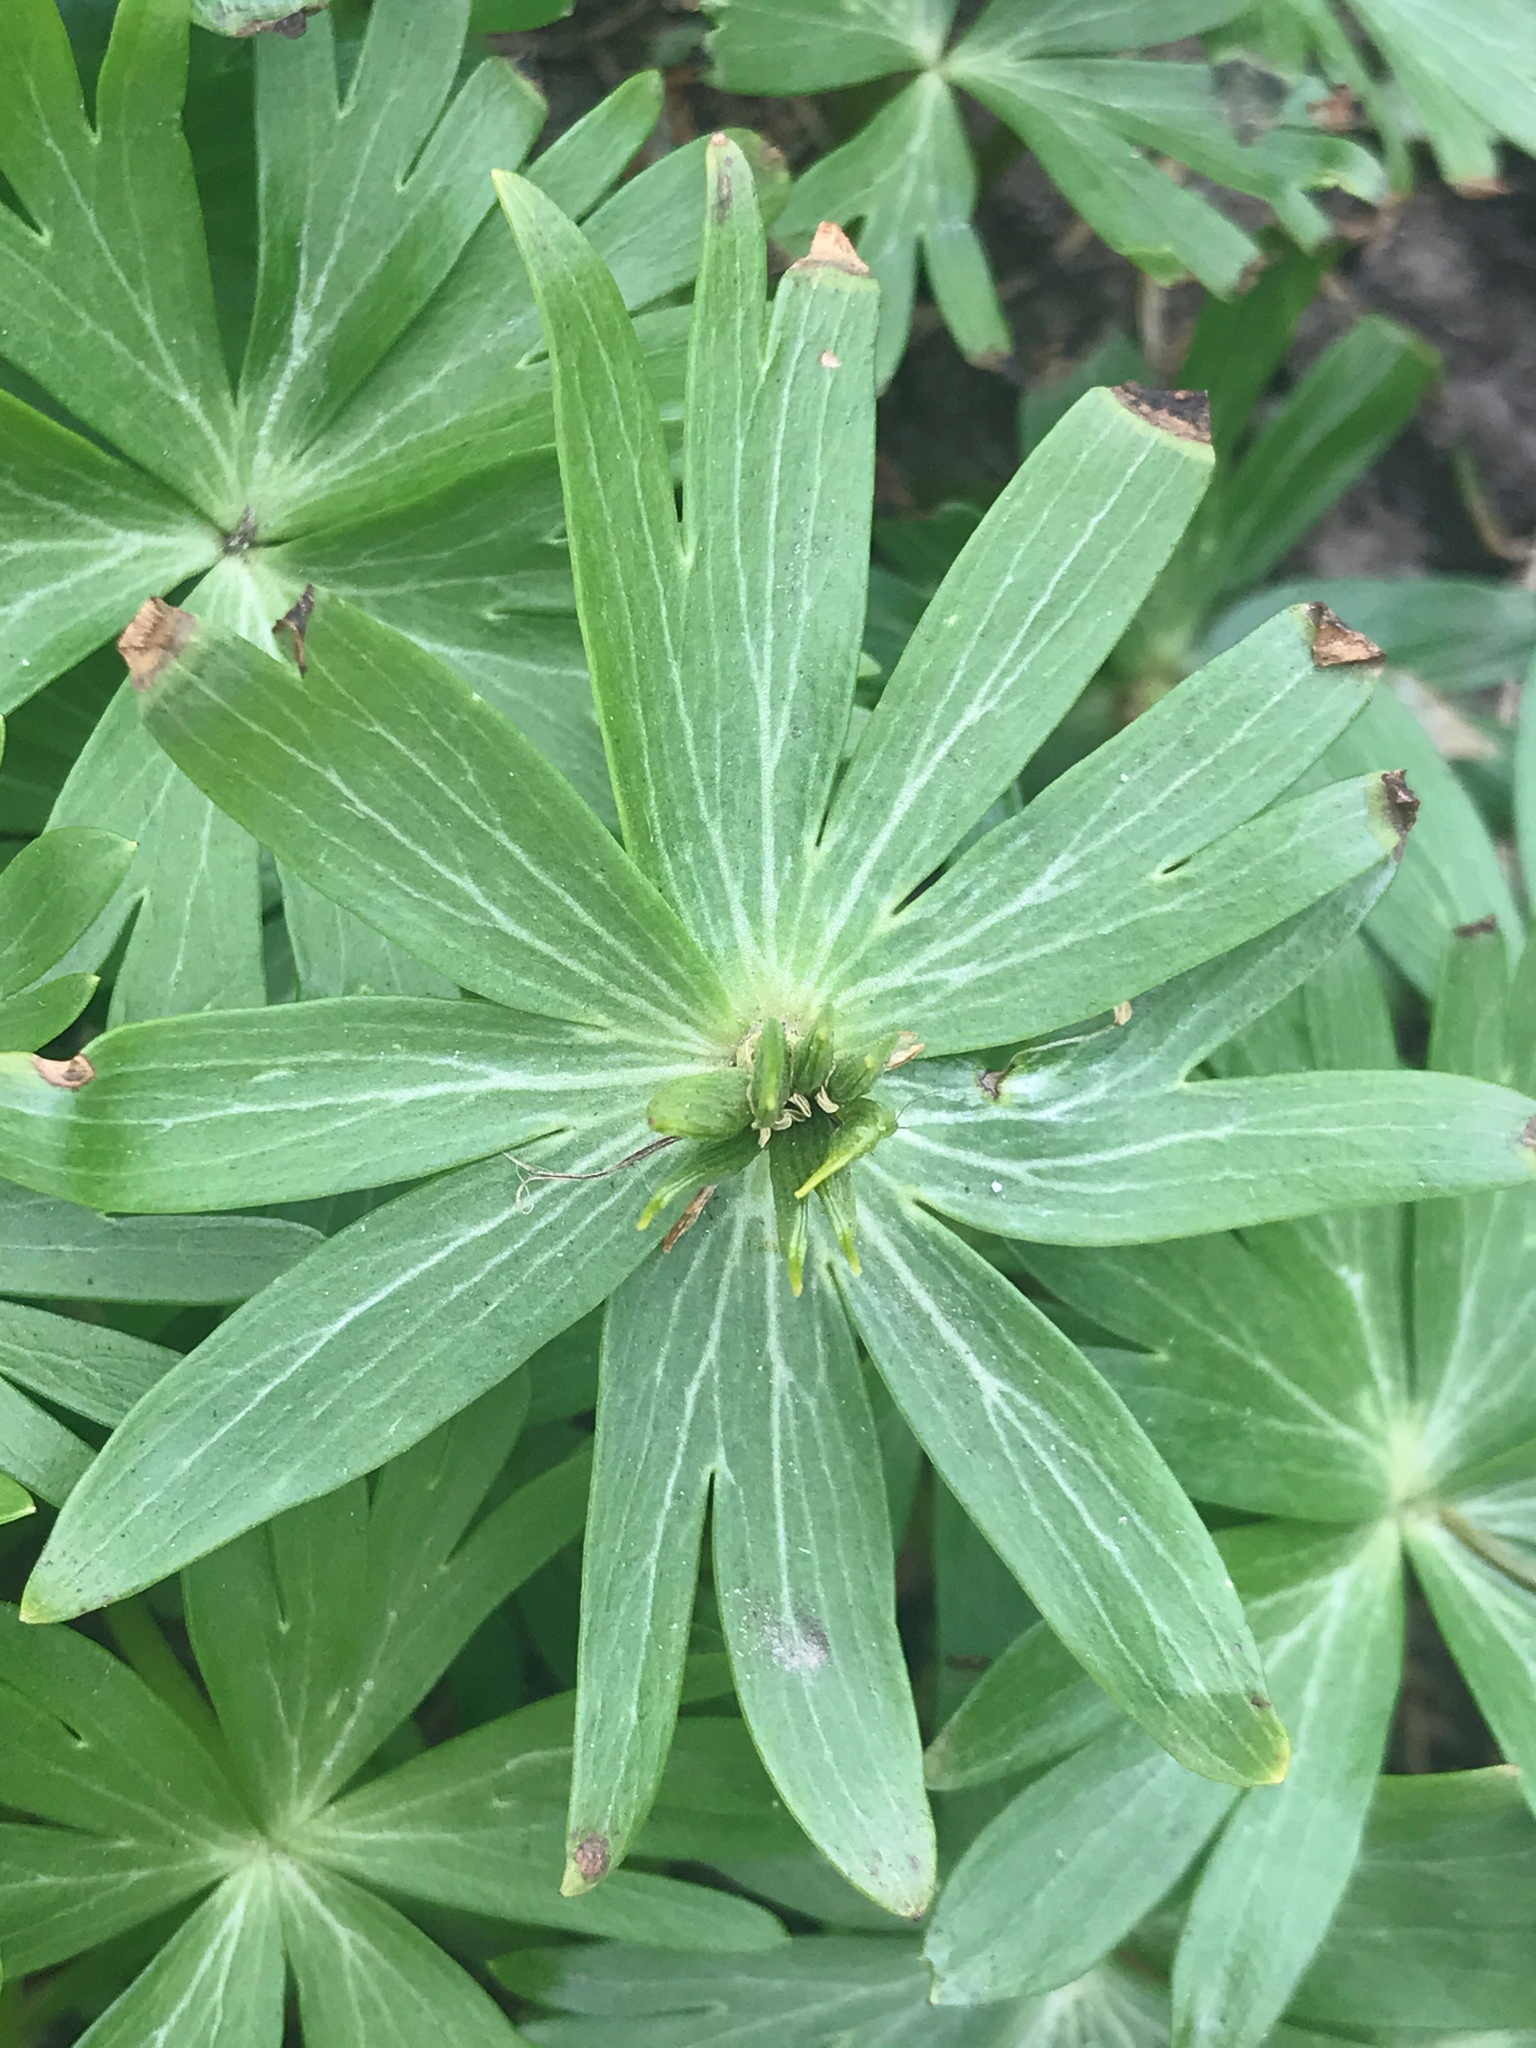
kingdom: Plantae
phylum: Tracheophyta
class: Magnoliopsida
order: Ranunculales
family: Ranunculaceae
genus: Eranthis
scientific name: Eranthis hyemalis
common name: Winter aconite
